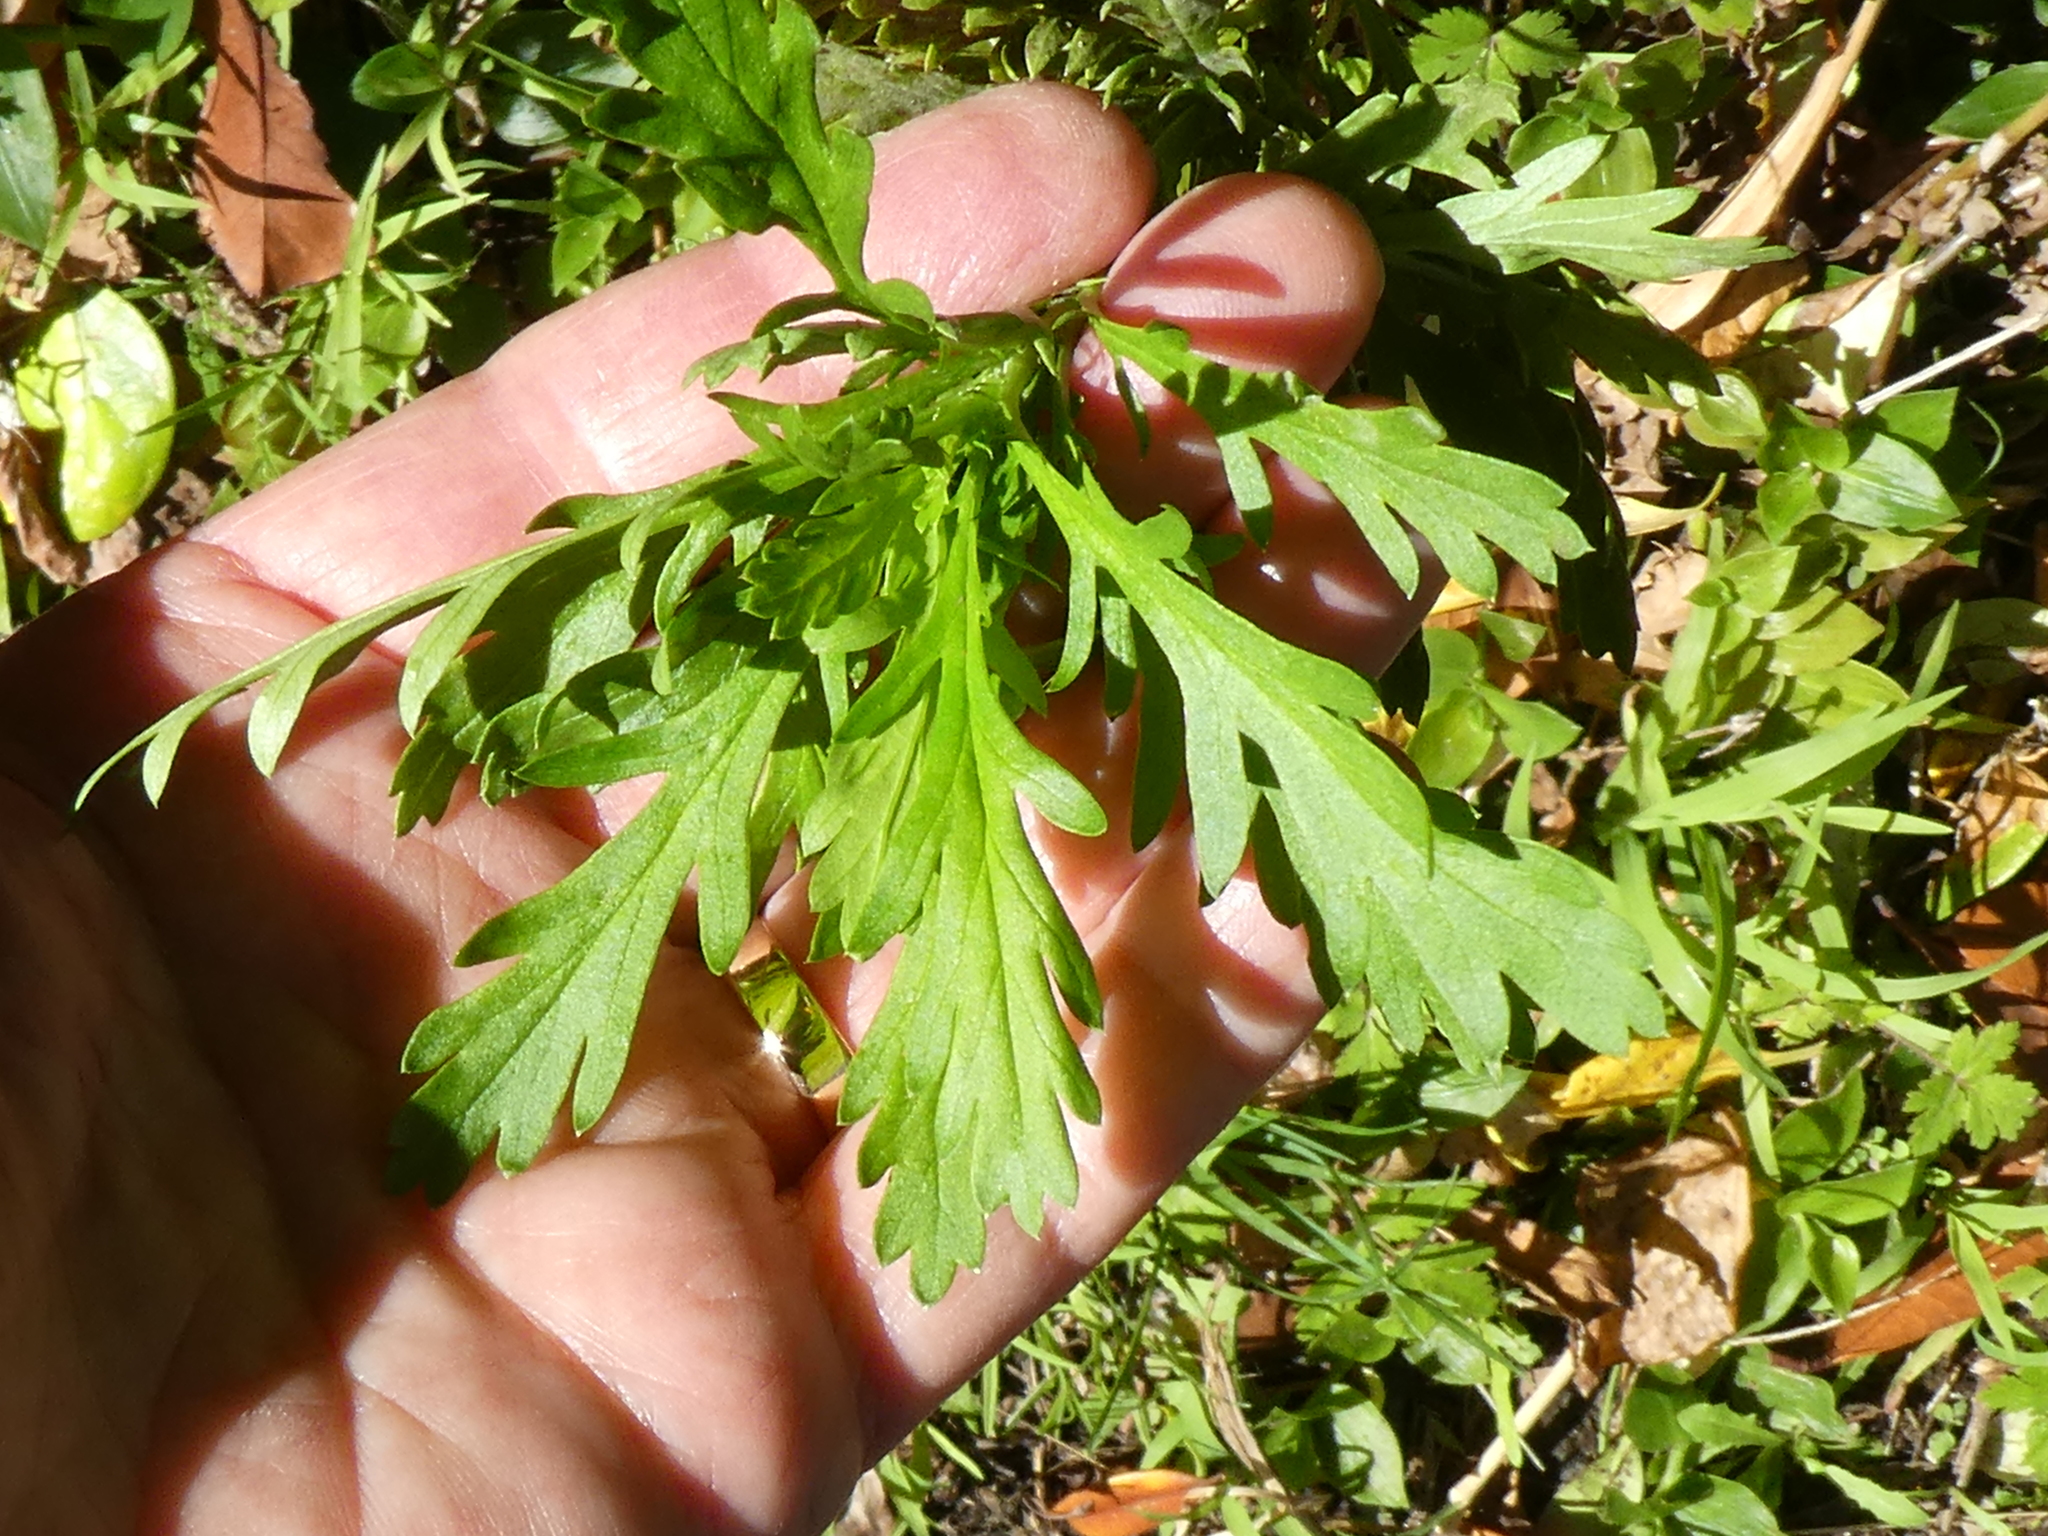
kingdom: Plantae
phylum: Tracheophyta
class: Magnoliopsida
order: Asterales
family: Asteraceae
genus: Euryops
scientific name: Euryops chrysanthemoides
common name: Bull's eye
